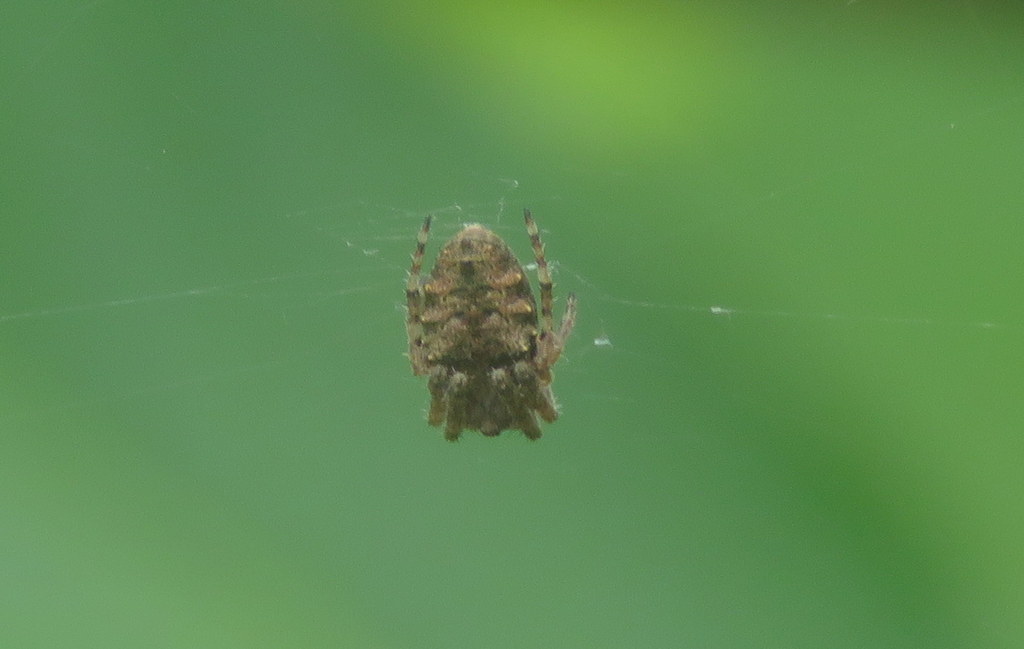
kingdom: Animalia
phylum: Arthropoda
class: Arachnida
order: Araneae
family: Araneidae
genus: Parawixia
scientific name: Parawixia audax
